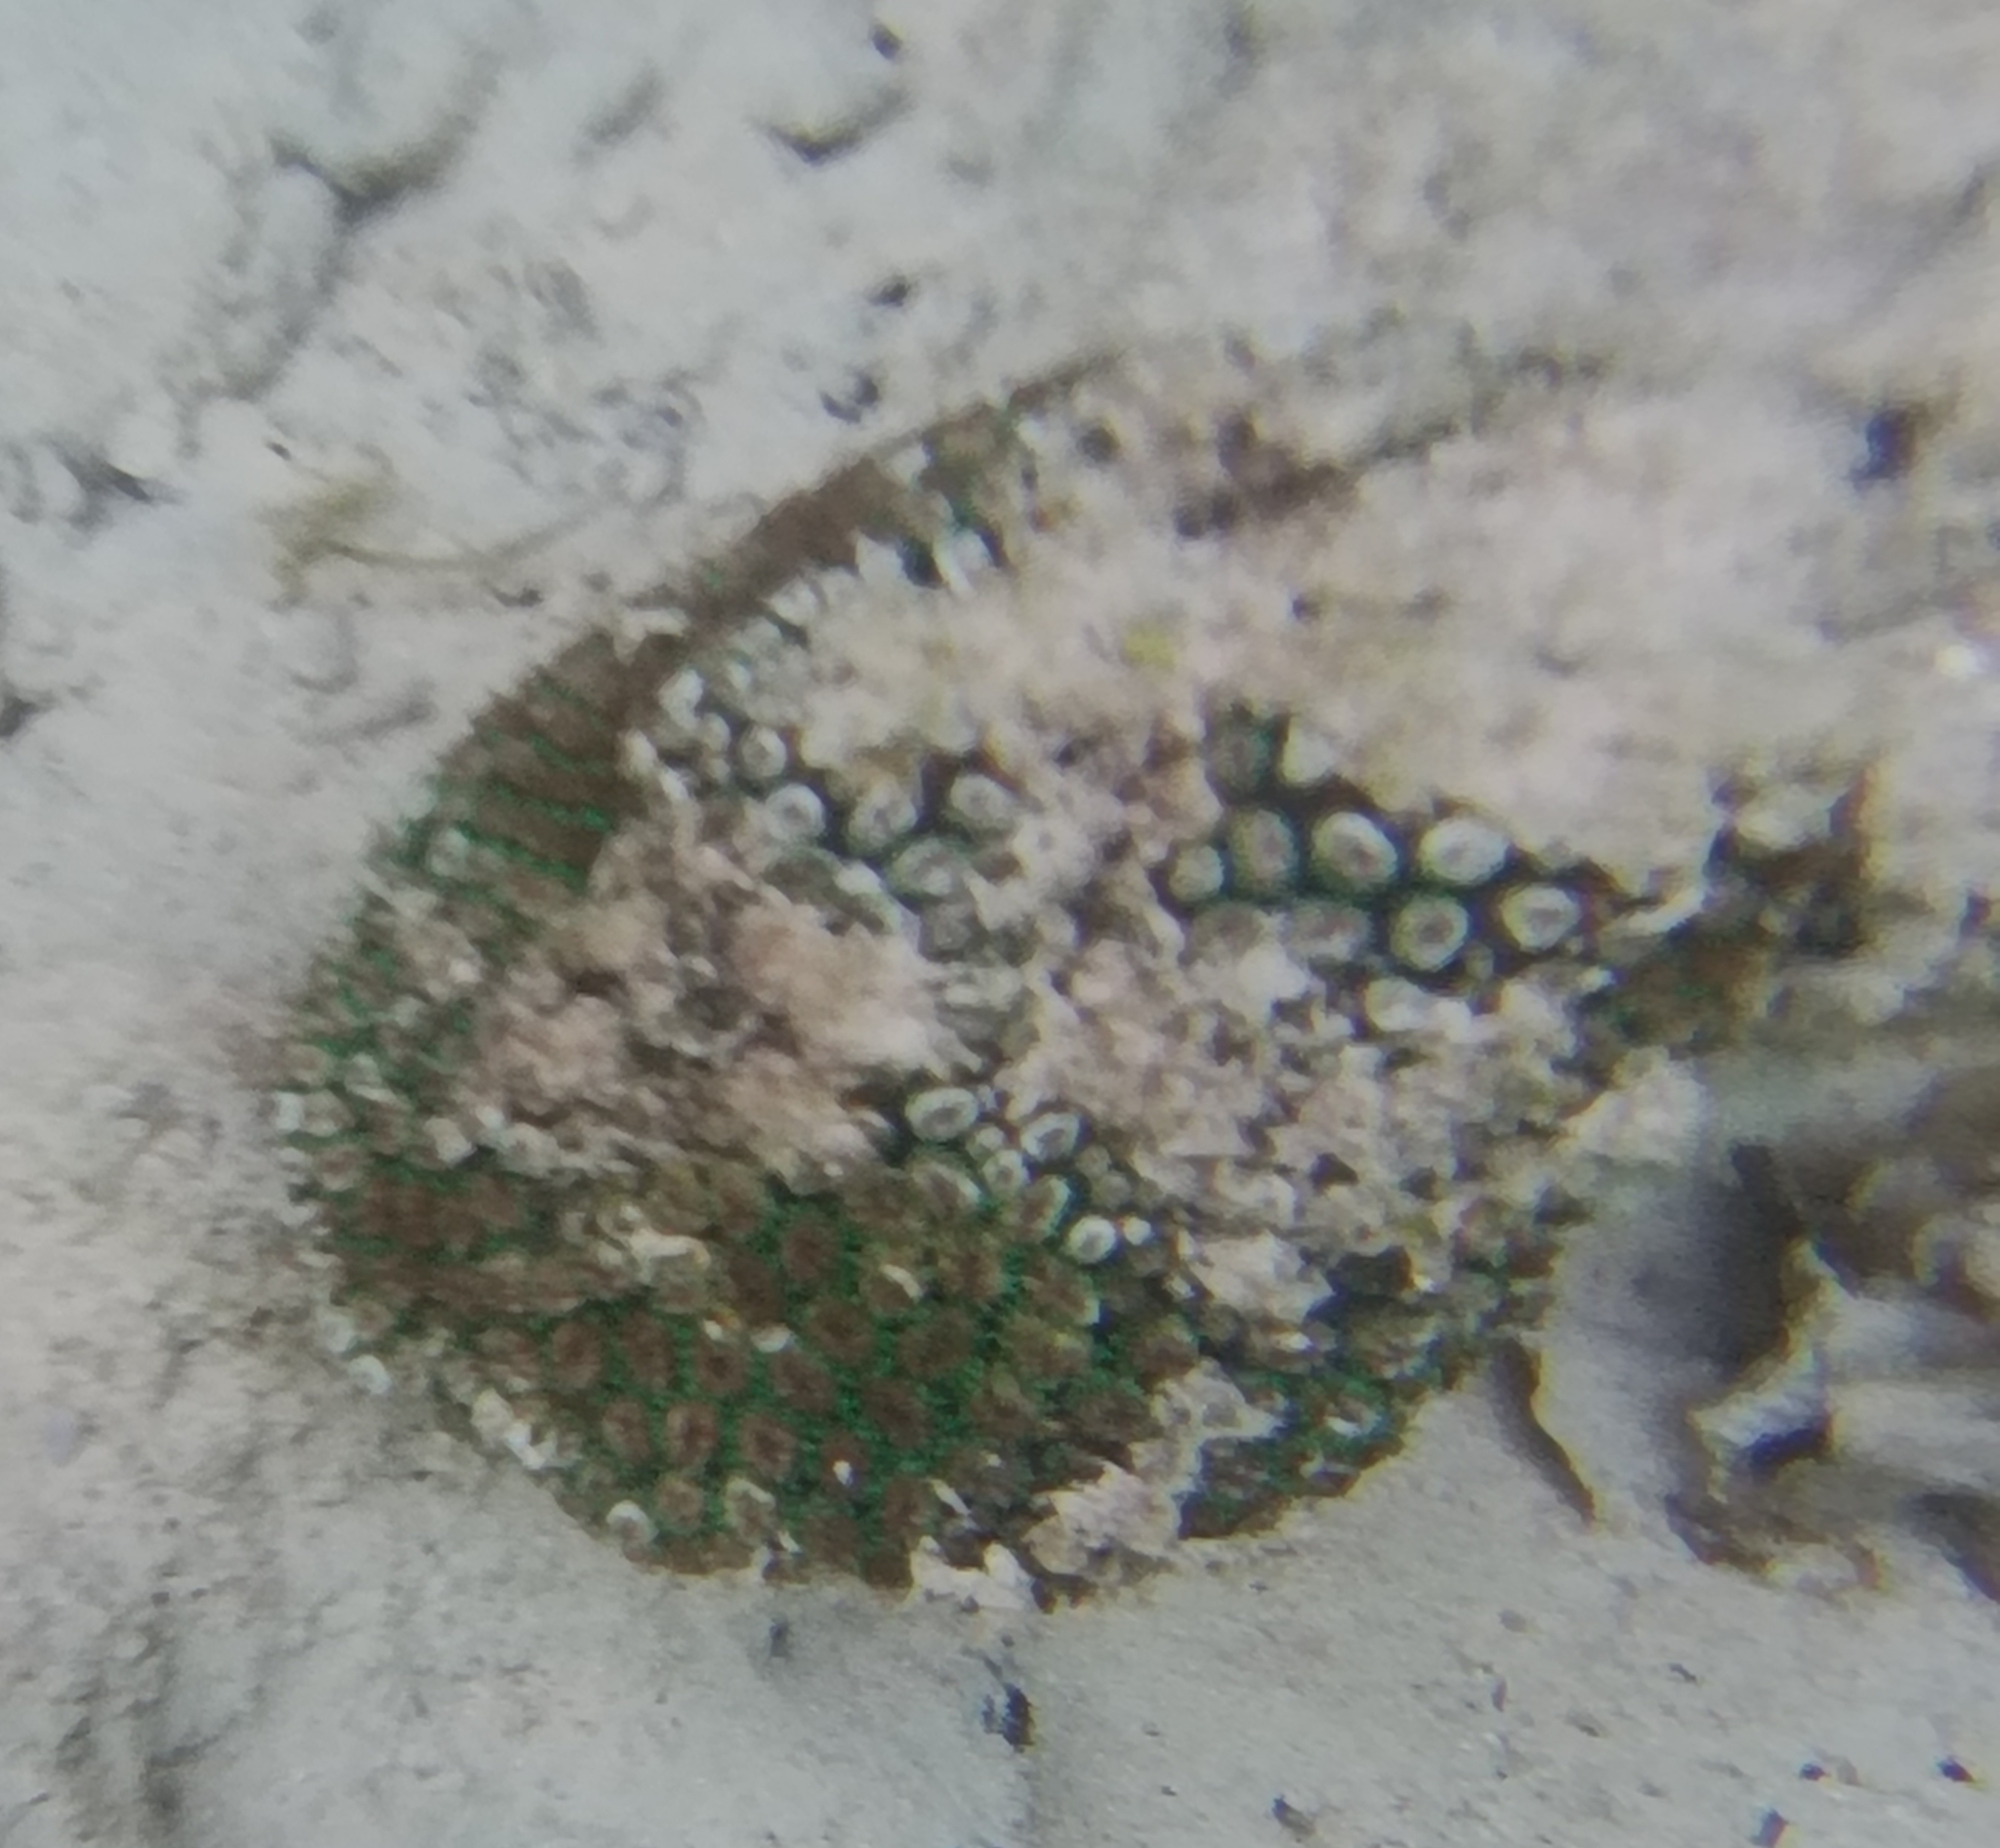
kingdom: Animalia
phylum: Cnidaria
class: Anthozoa
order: Scleractinia
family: Euphylliidae
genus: Galaxea
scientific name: Galaxea fascicularis
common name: Octopus coral
